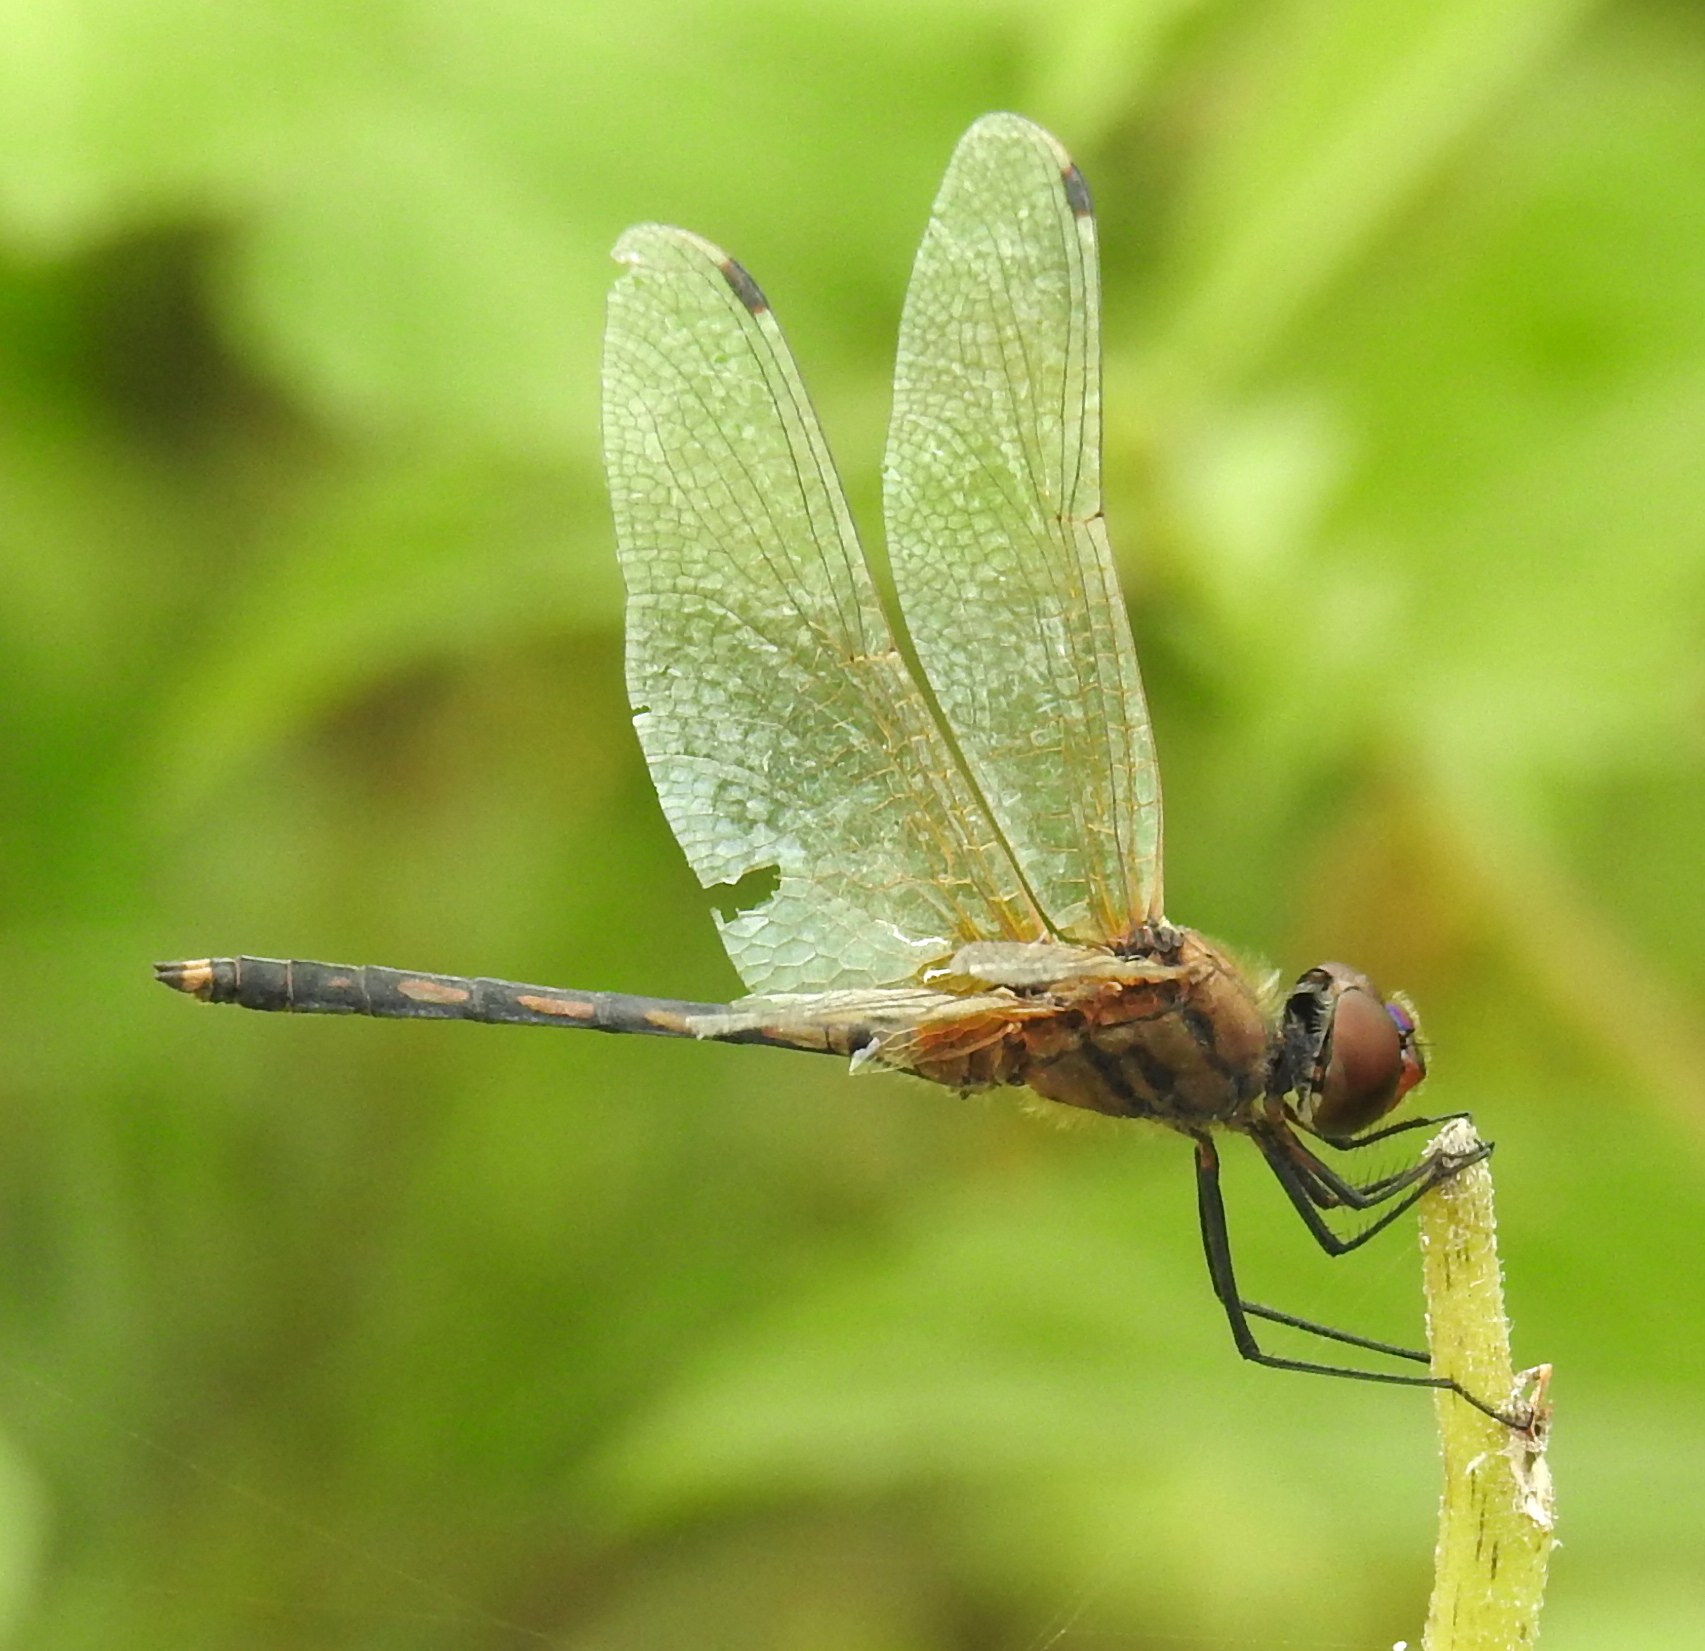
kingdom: Animalia
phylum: Arthropoda
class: Insecta
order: Odonata
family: Libellulidae
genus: Trithemis
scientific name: Trithemis pallidinervis
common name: Dancing dropwing
